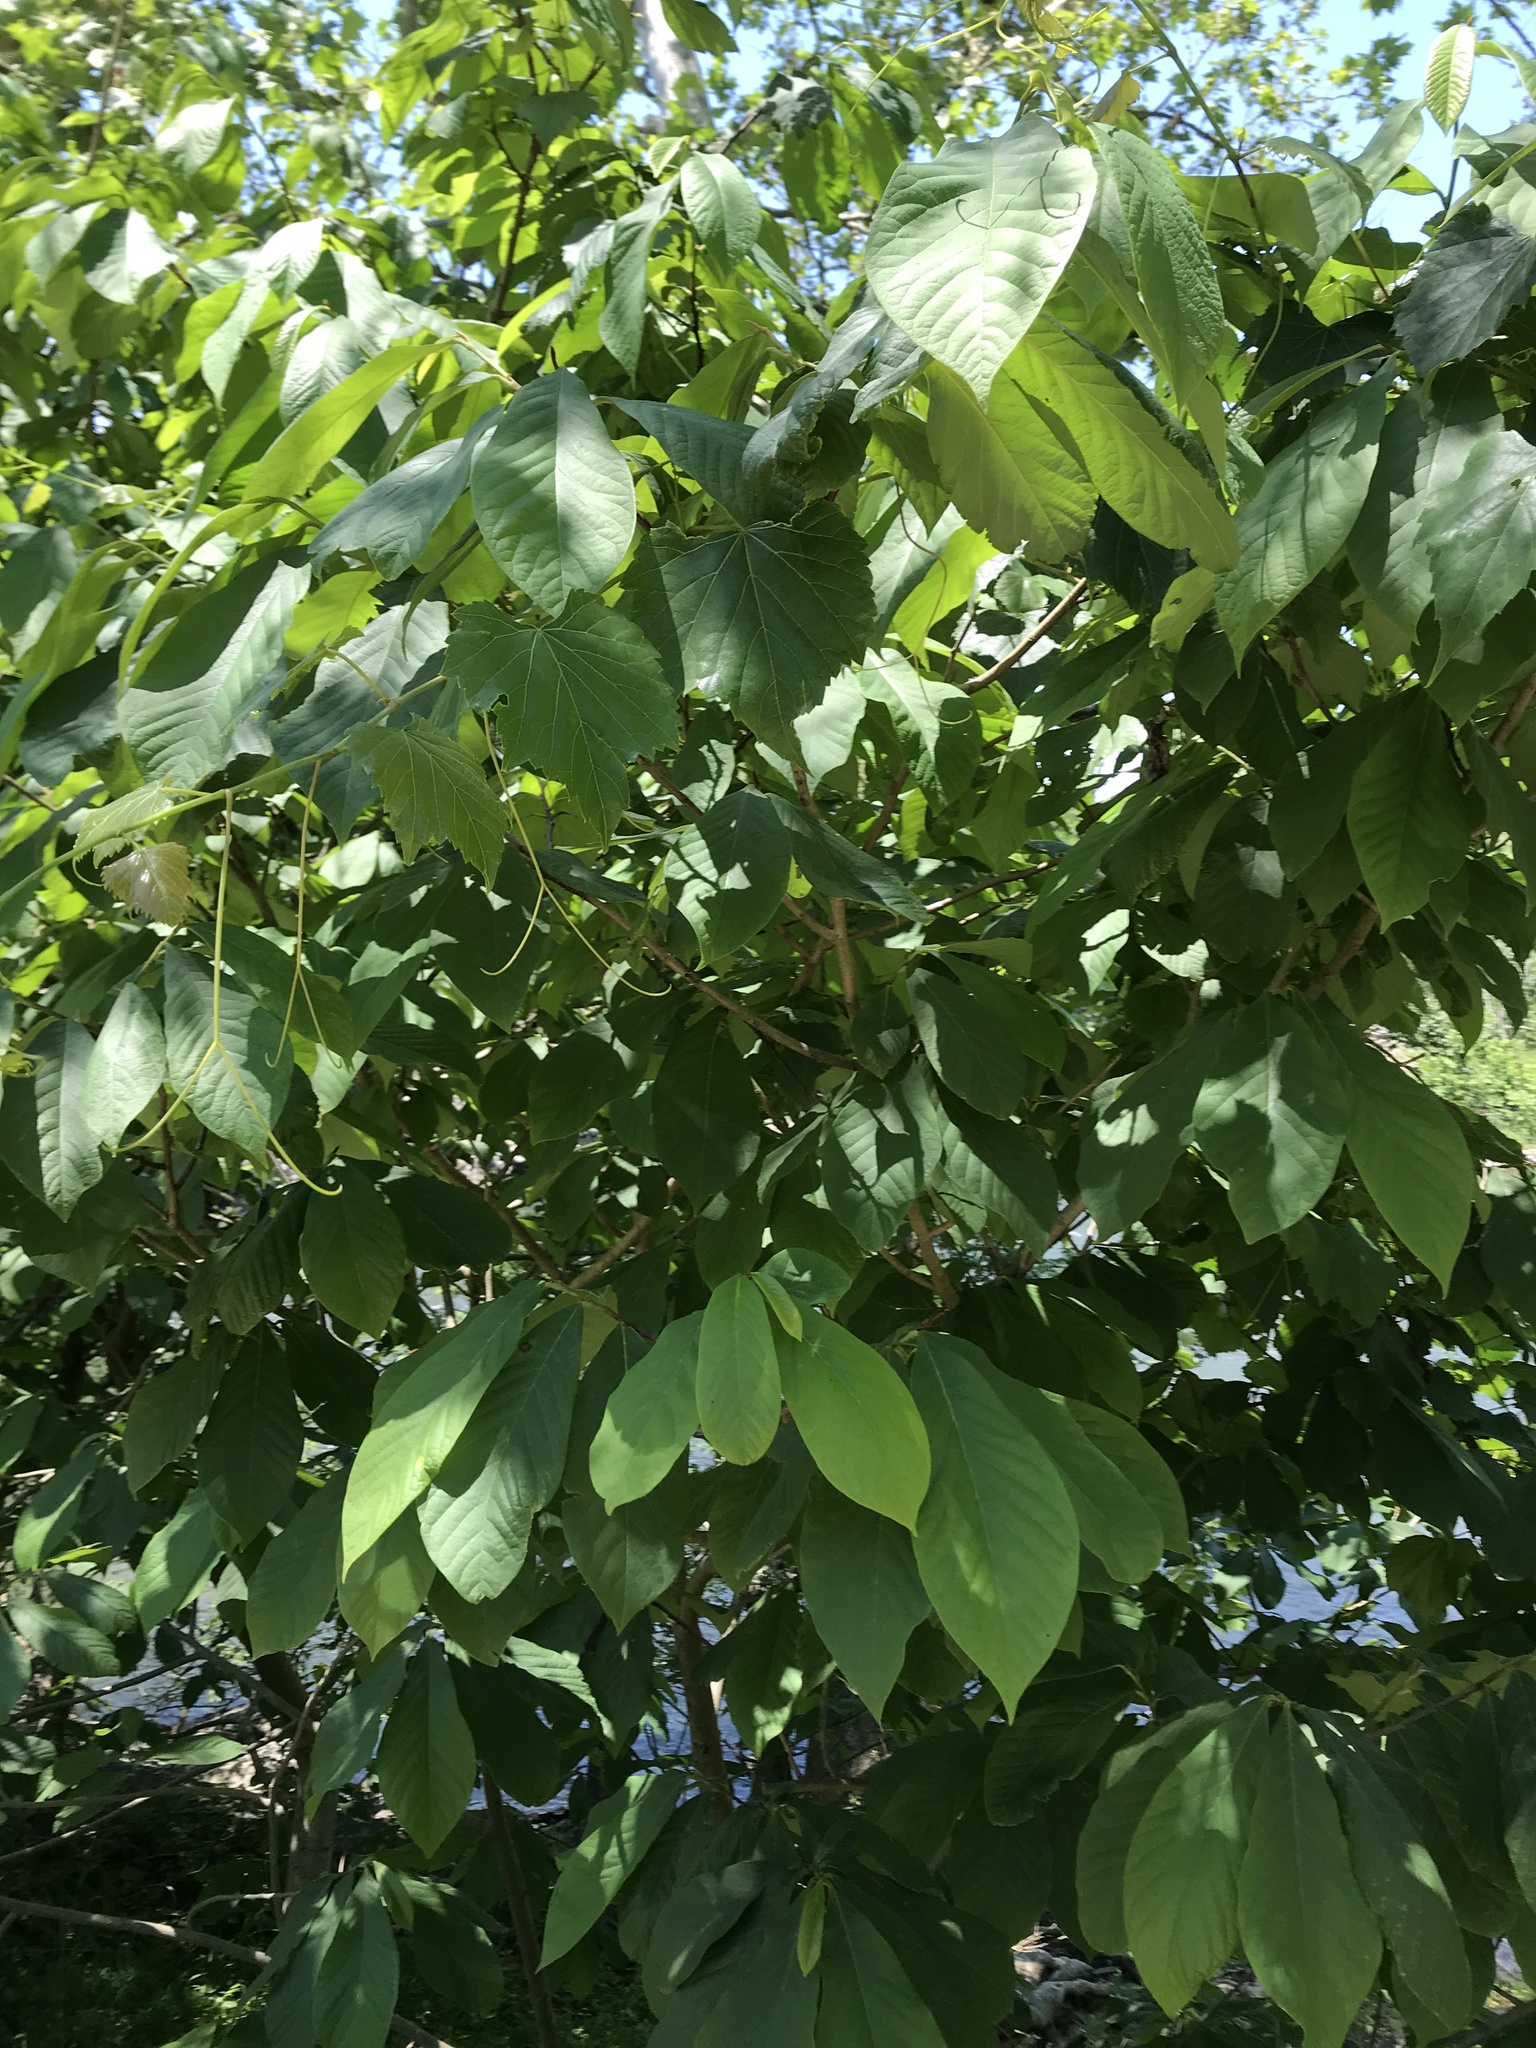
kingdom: Plantae
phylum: Tracheophyta
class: Magnoliopsida
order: Magnoliales
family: Annonaceae
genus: Asimina
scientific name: Asimina triloba
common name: Dog-banana
